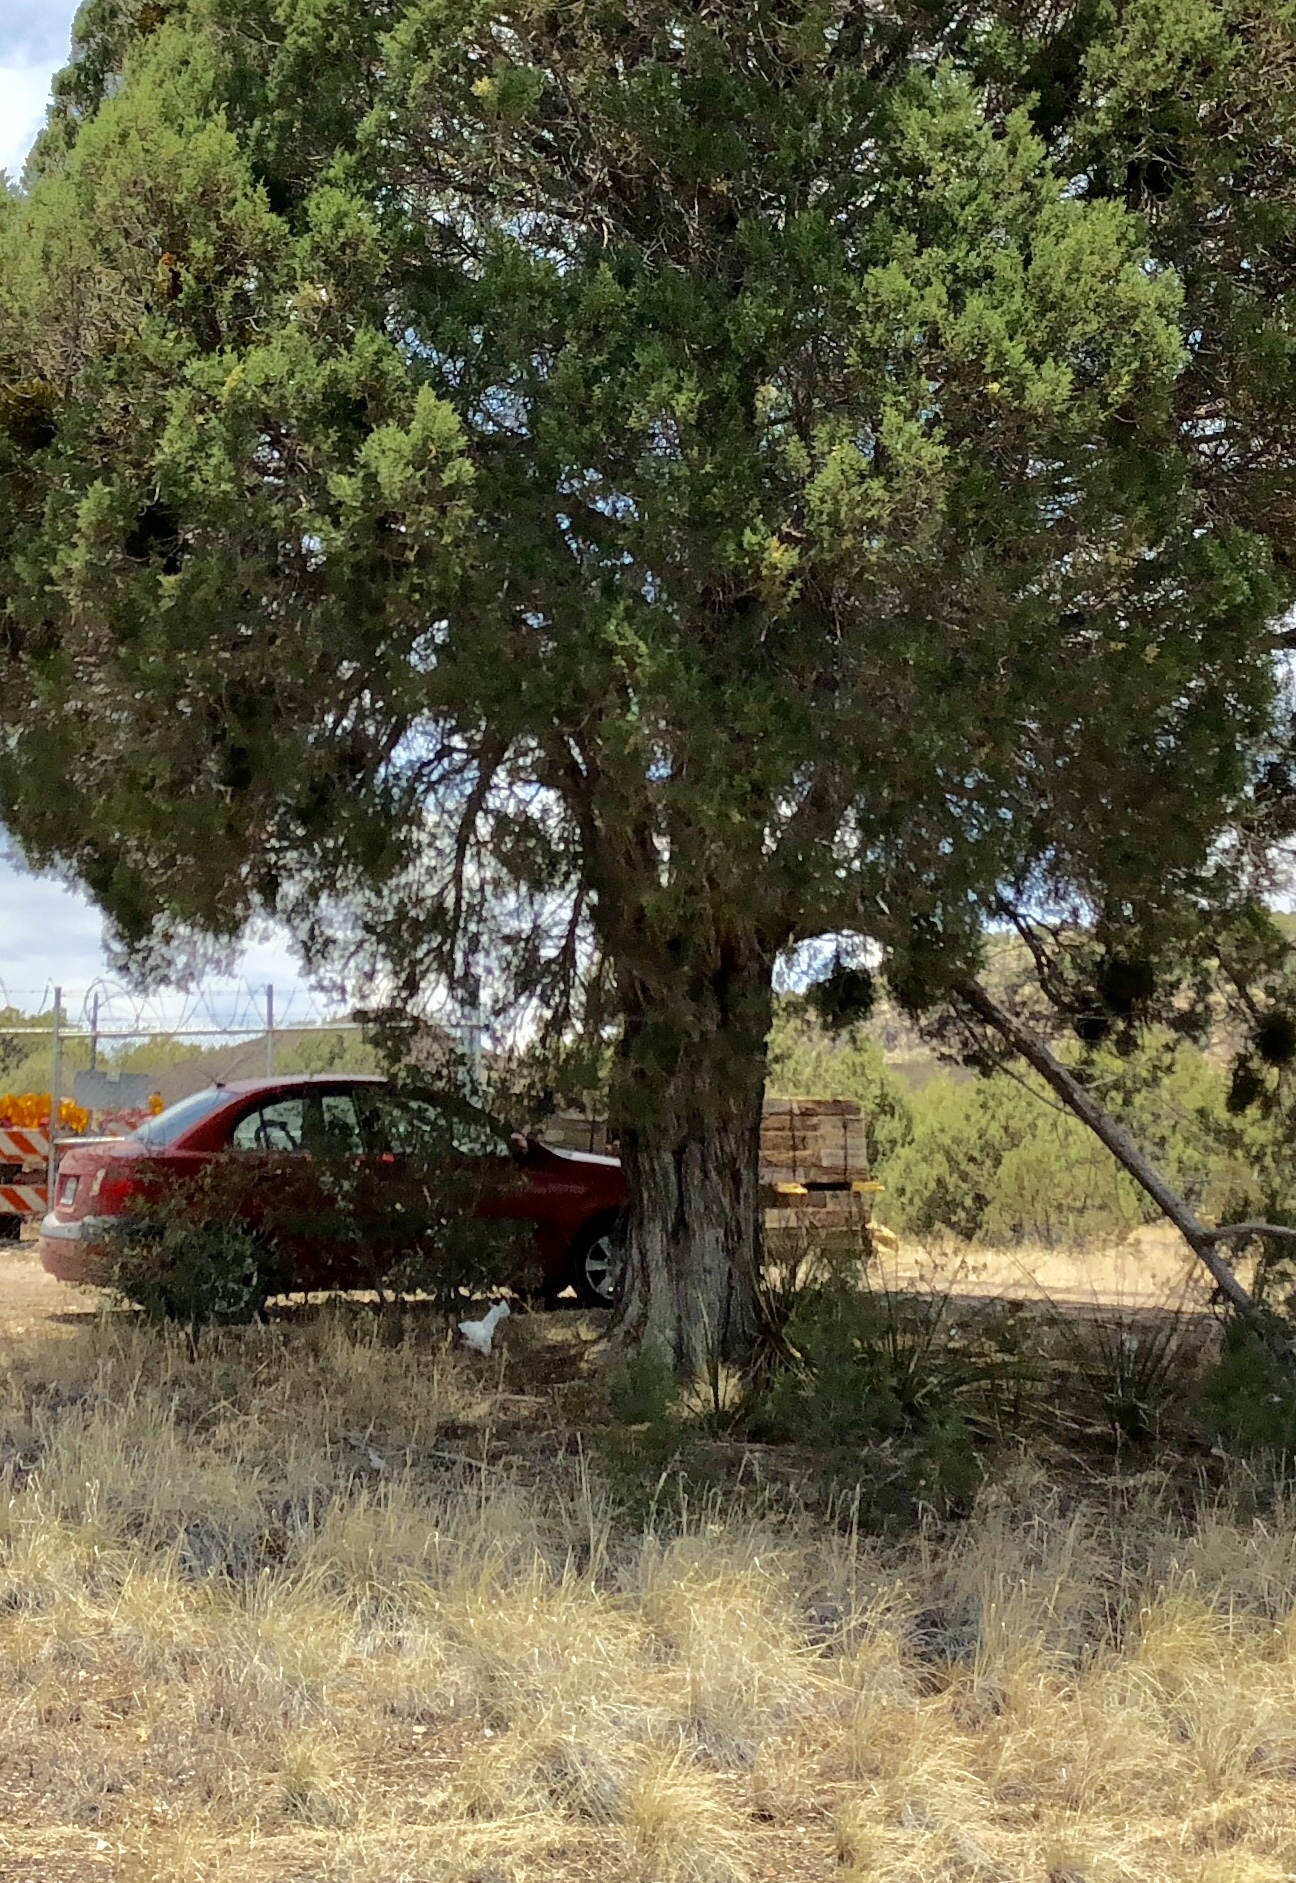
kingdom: Plantae
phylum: Tracheophyta
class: Pinopsida
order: Pinales
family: Cupressaceae
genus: Juniperus
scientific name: Juniperus osteosperma
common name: Utah juniper
